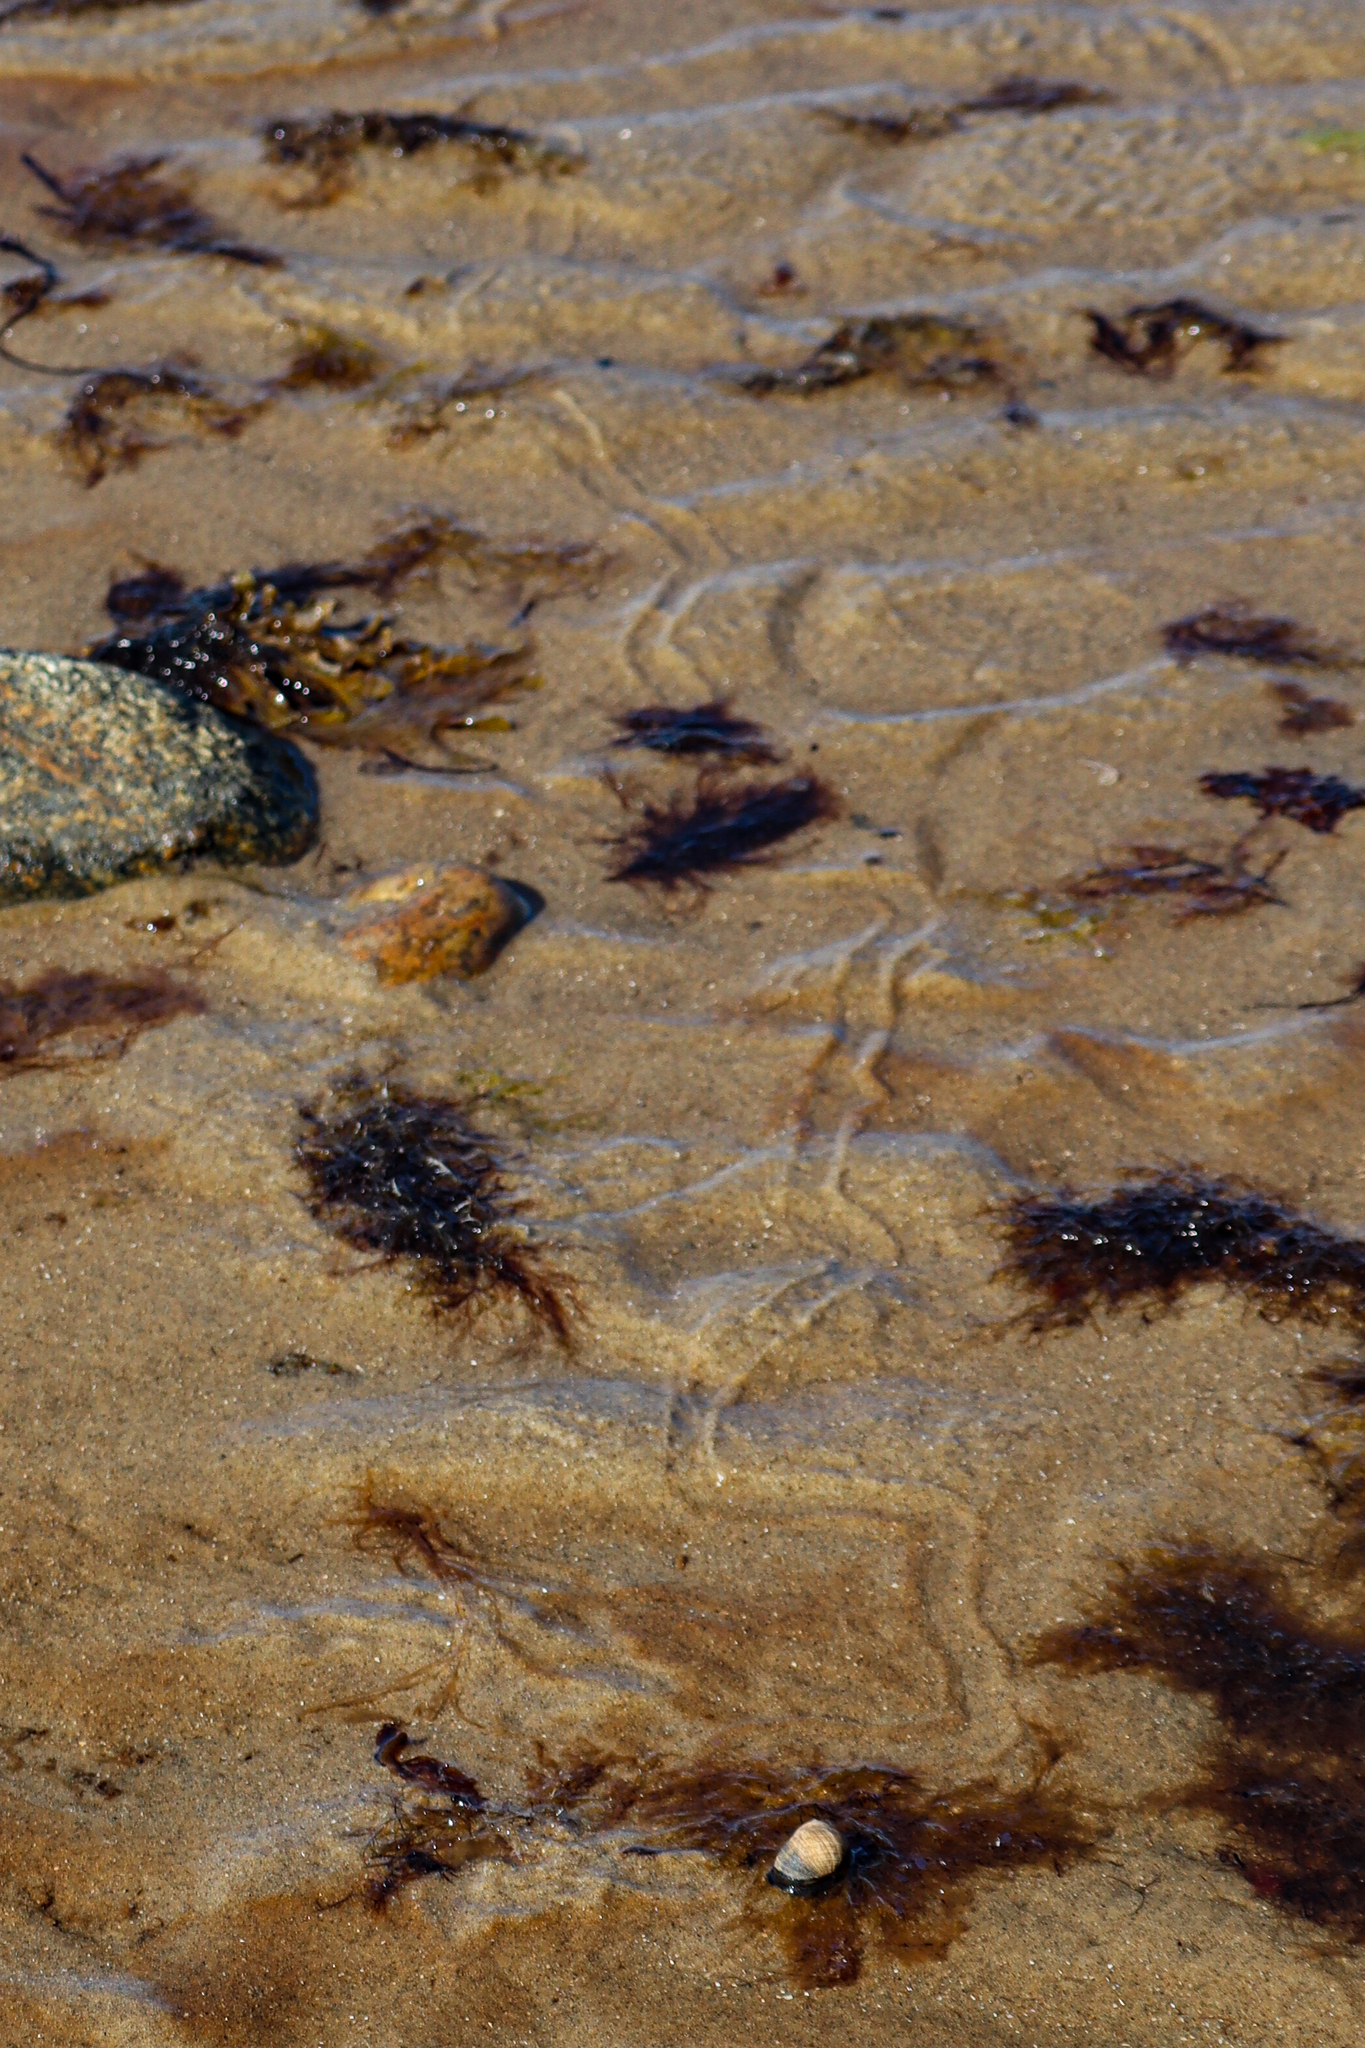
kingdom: Animalia
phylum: Mollusca
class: Gastropoda
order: Littorinimorpha
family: Littorinidae
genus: Littorina
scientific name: Littorina littorea
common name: Common periwinkle
